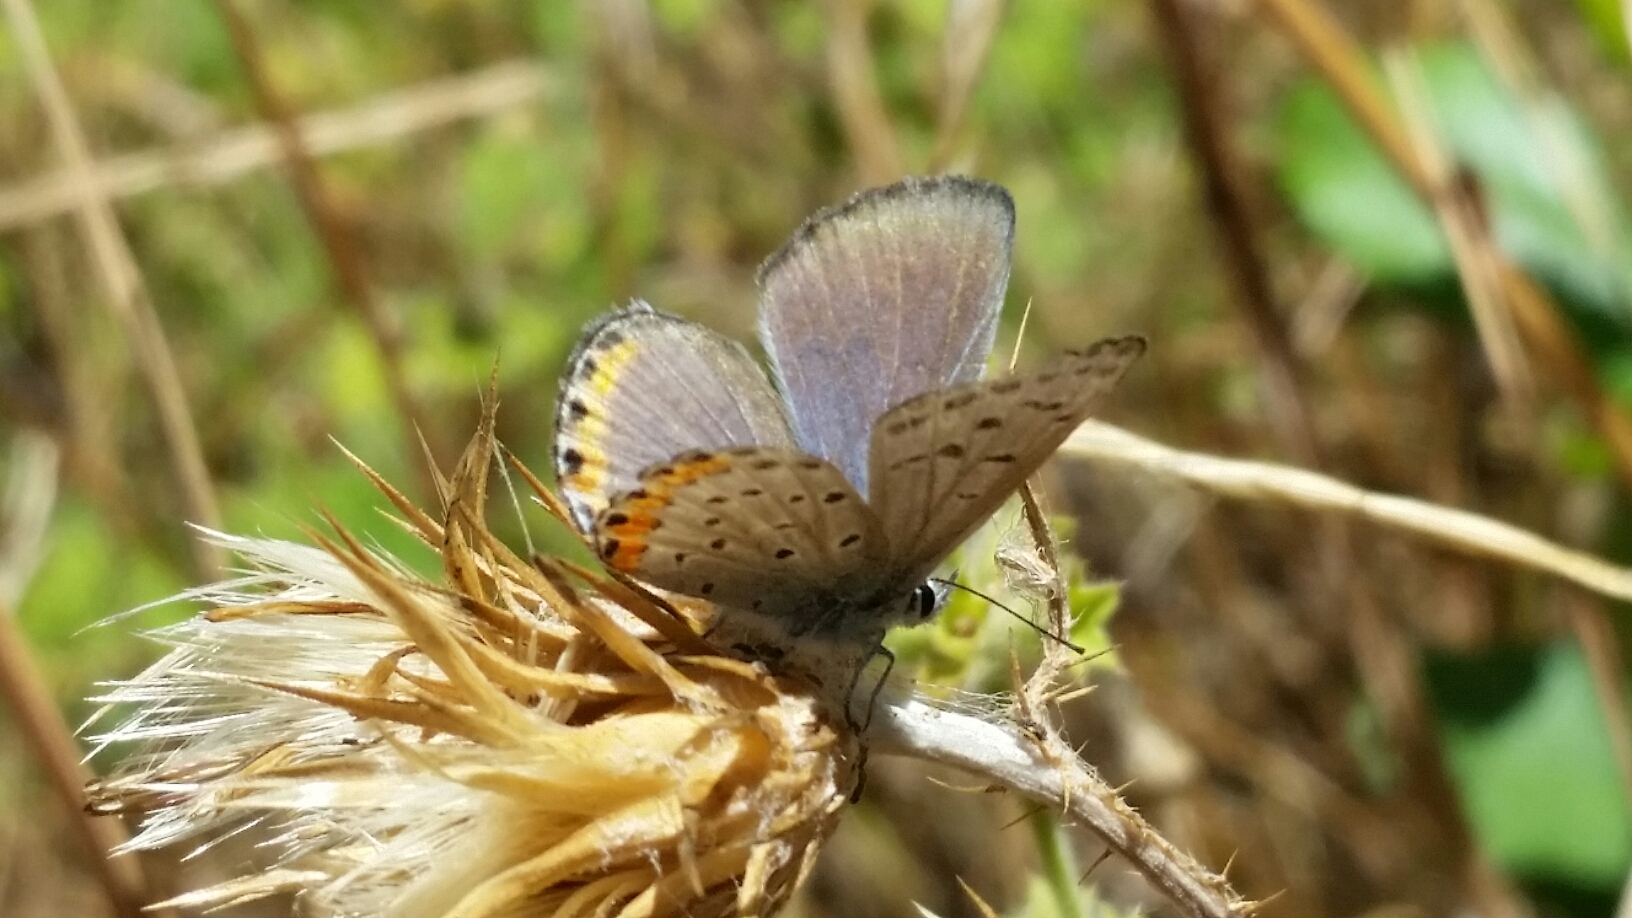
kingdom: Animalia
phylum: Arthropoda
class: Insecta
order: Lepidoptera
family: Lycaenidae
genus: Icaricia
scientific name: Icaricia acmon
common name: Acmon blue
